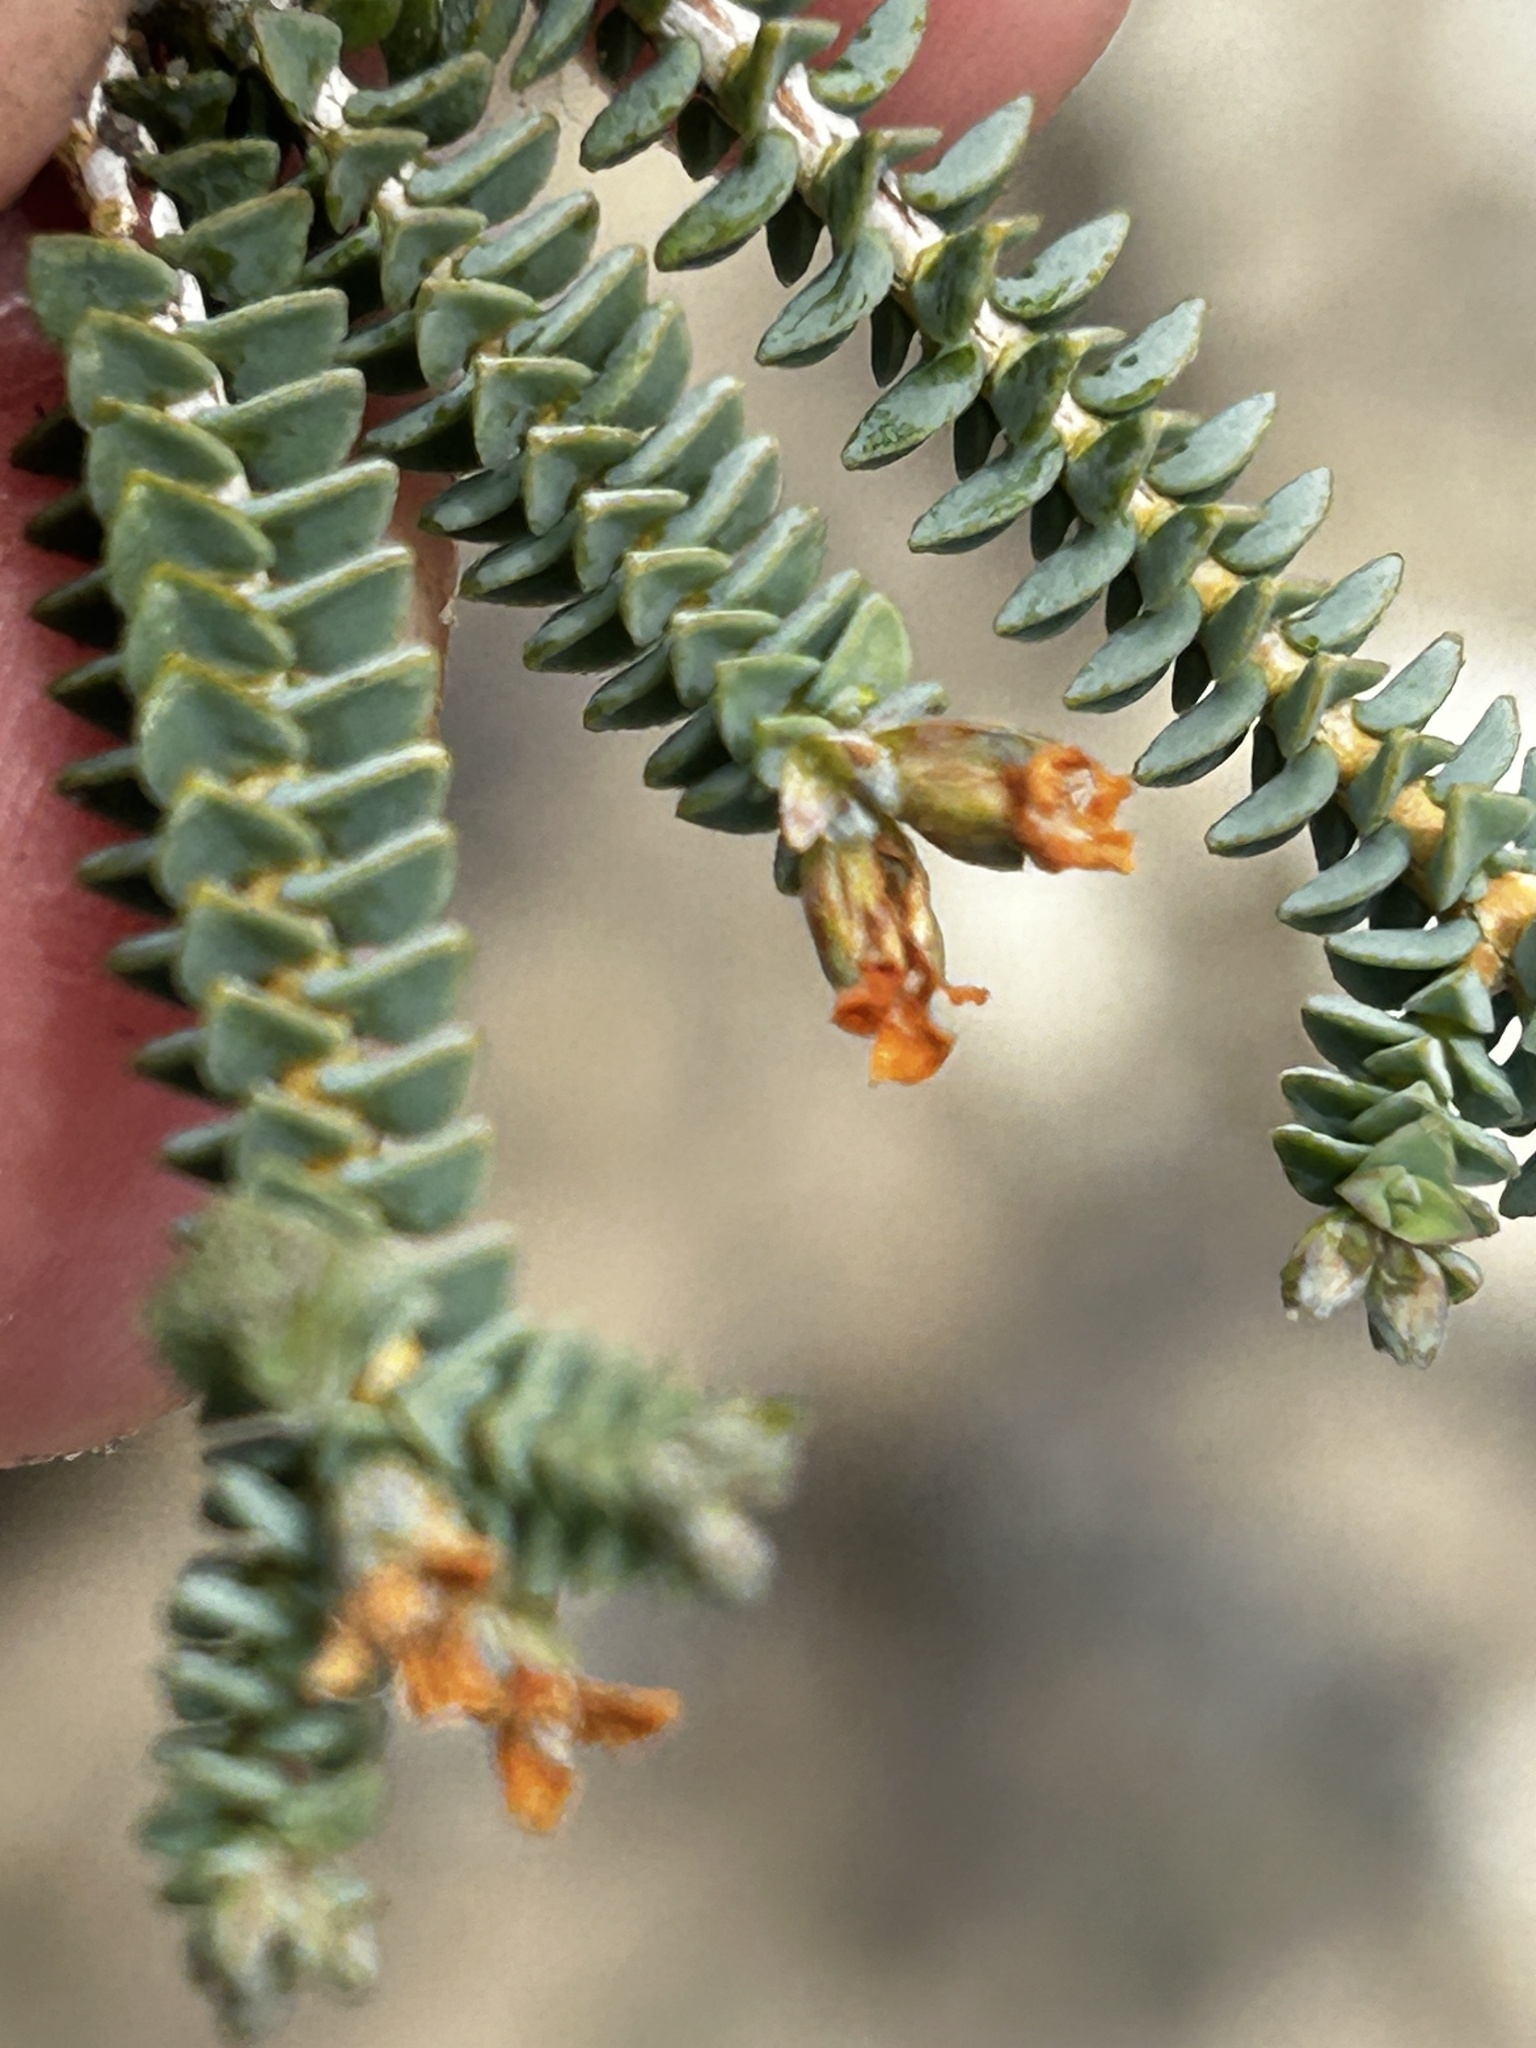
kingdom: Plantae
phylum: Tracheophyta
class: Magnoliopsida
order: Sapindales
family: Rutaceae
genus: Euchaetis
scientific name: Euchaetis meridionalis
